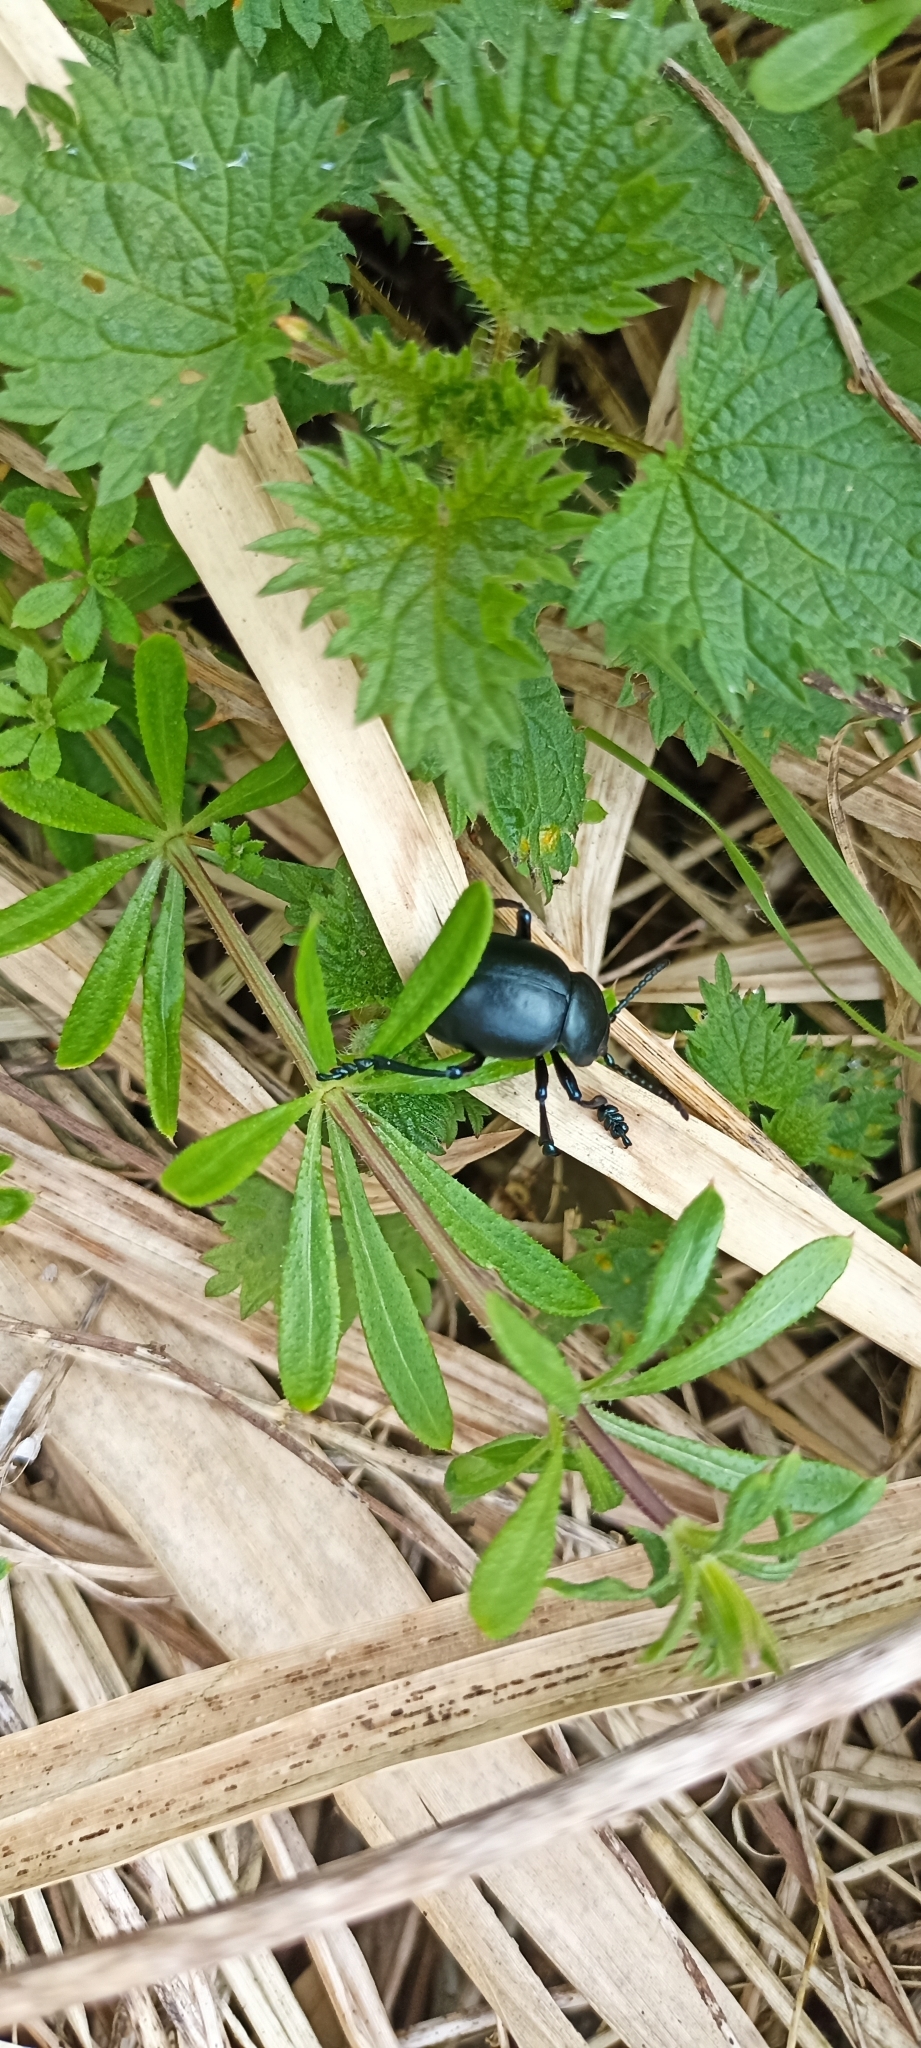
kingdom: Animalia
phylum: Arthropoda
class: Insecta
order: Coleoptera
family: Chrysomelidae
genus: Timarcha
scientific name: Timarcha tenebricosa
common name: Bloody-nosed beetle
